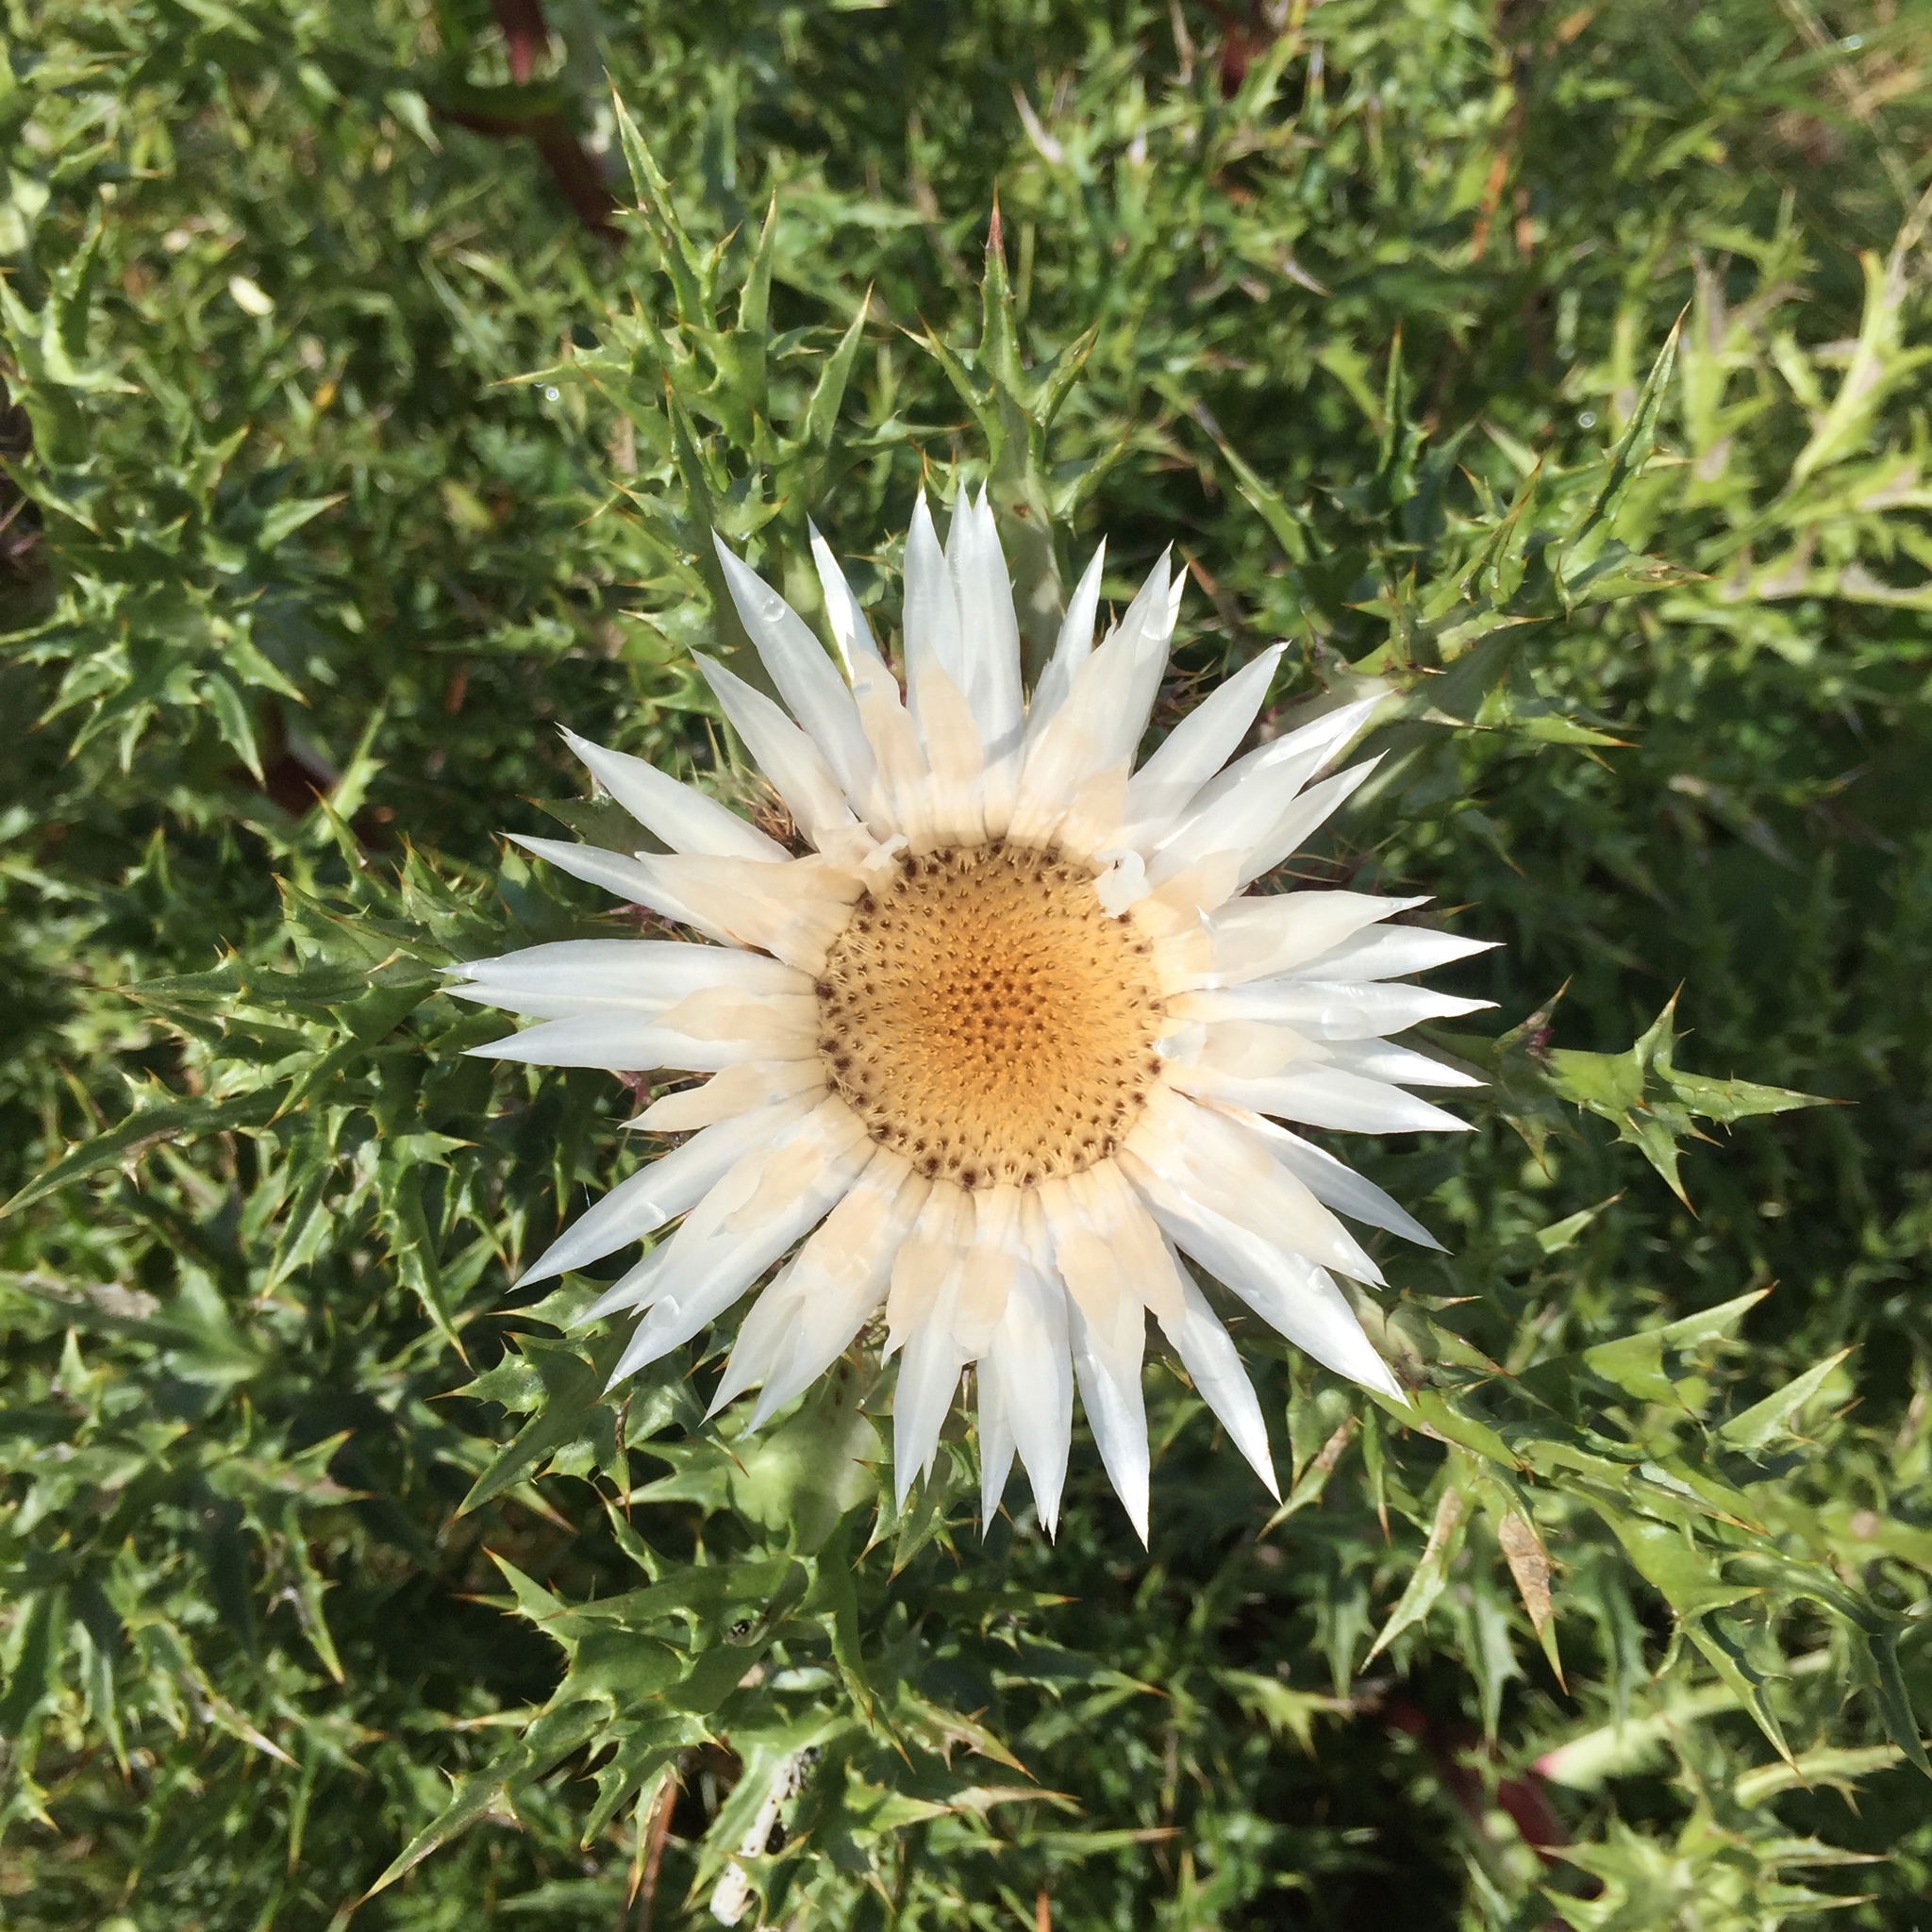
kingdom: Plantae
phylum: Tracheophyta
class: Magnoliopsida
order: Asterales
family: Asteraceae
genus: Carlina
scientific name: Carlina acaulis
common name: Stemless carline thistle
